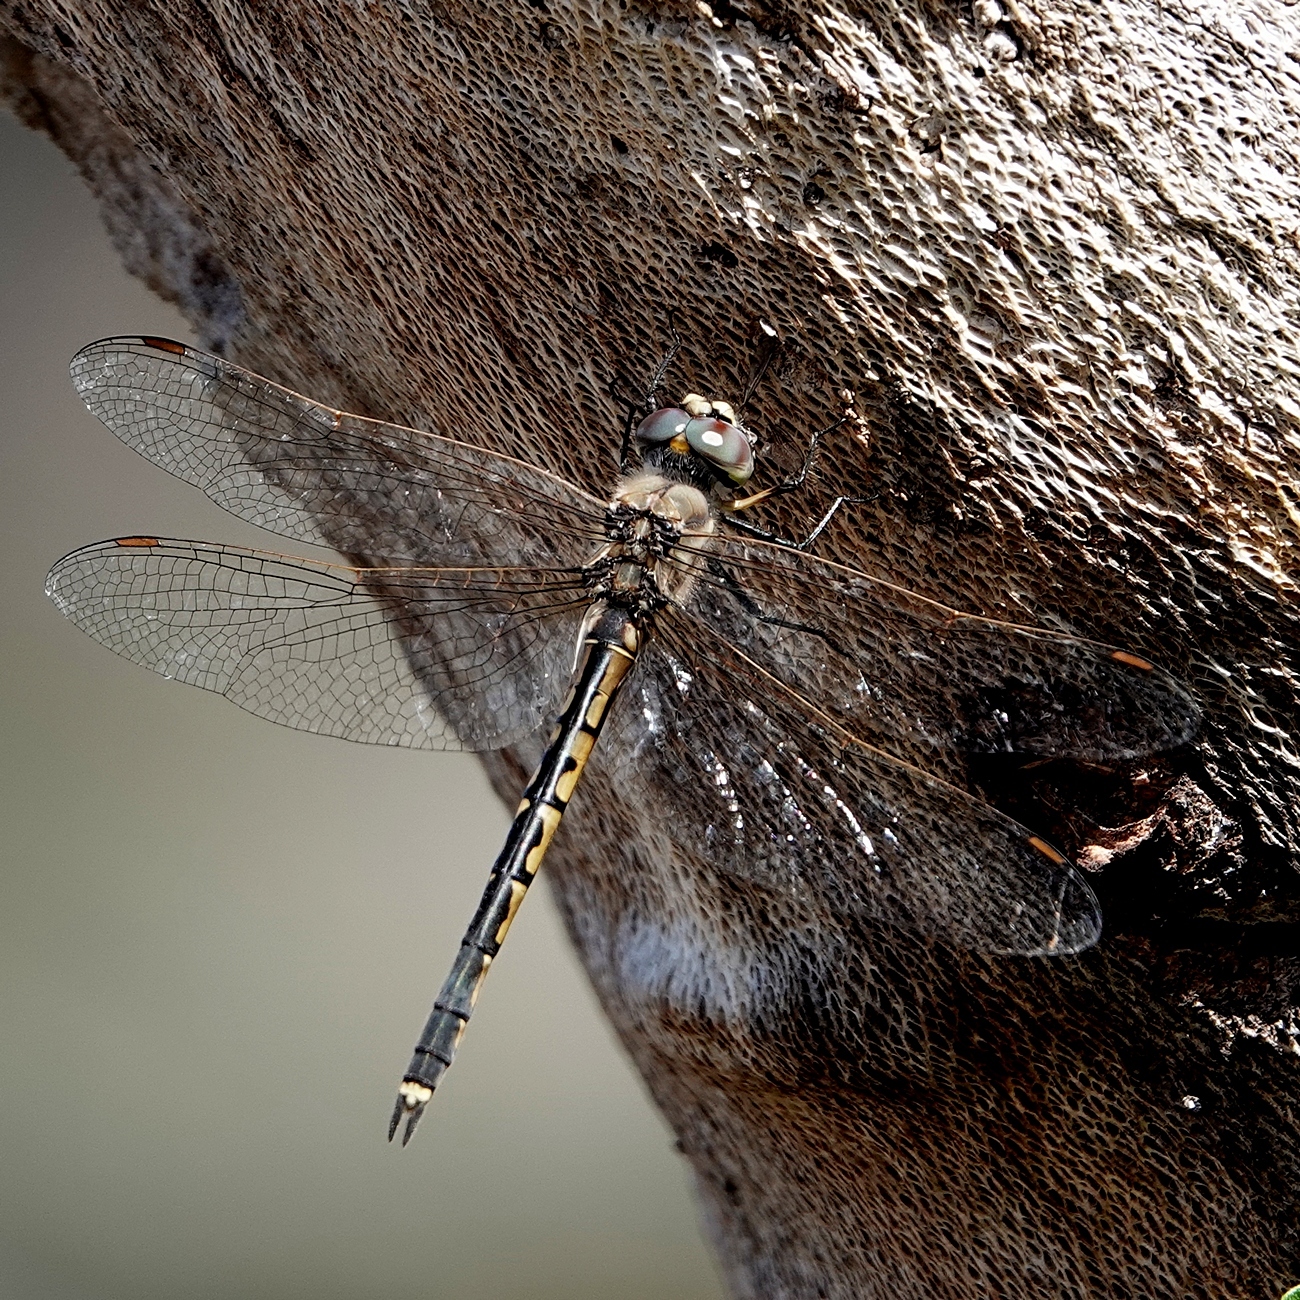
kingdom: Animalia
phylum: Arthropoda
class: Insecta
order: Odonata
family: Corduliidae
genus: Hemicordulia
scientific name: Hemicordulia tau
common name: Tau emerald
